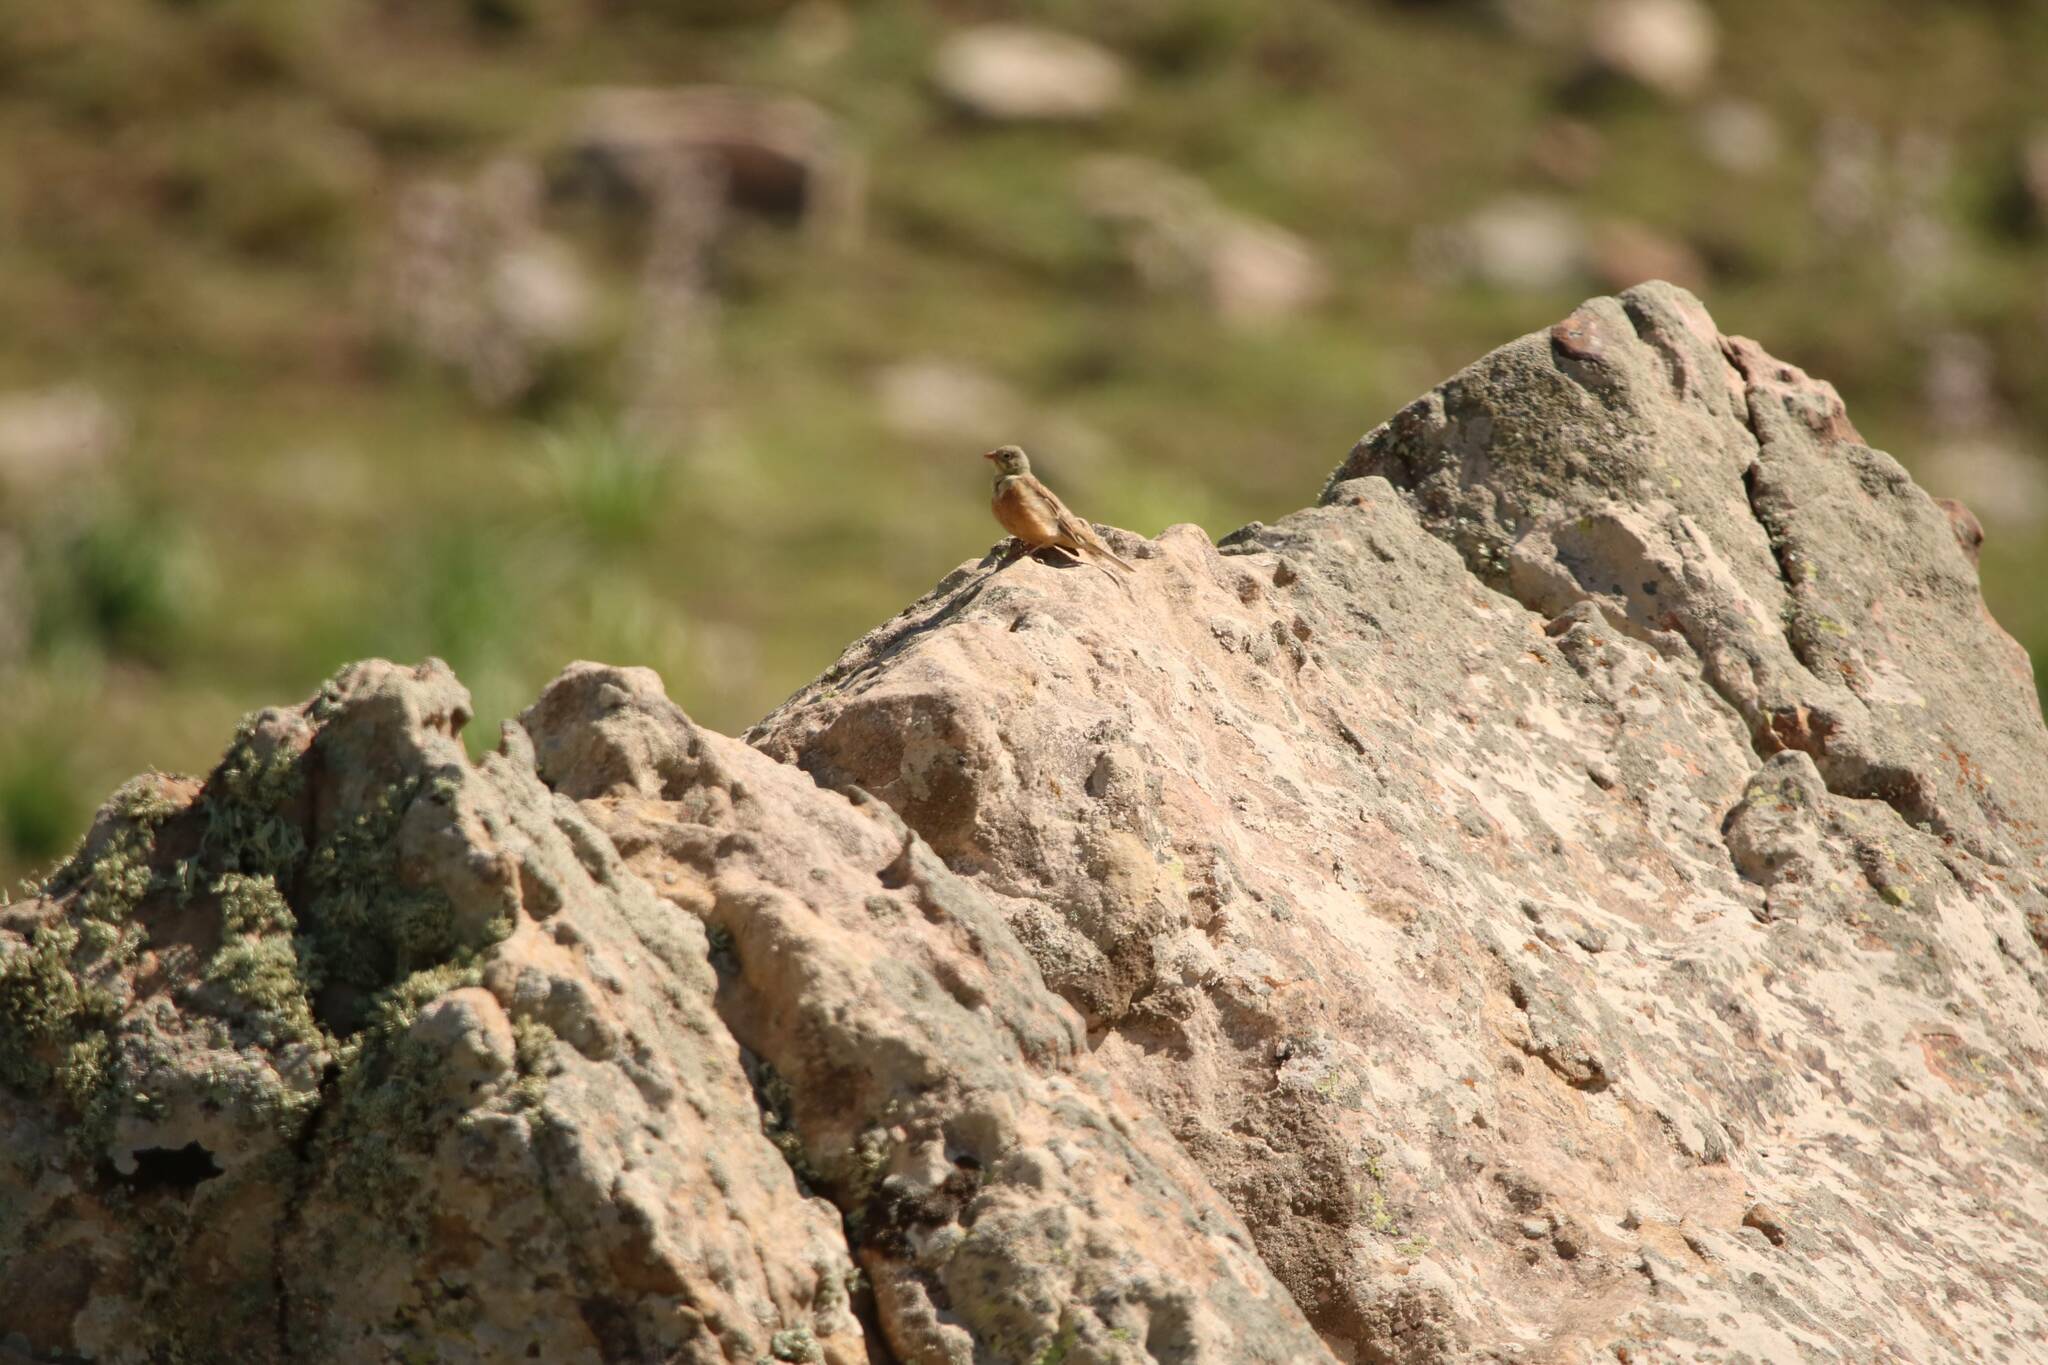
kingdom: Animalia
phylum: Chordata
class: Aves
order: Passeriformes
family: Emberizidae
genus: Emberiza
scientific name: Emberiza hortulana
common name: Ortolan bunting
